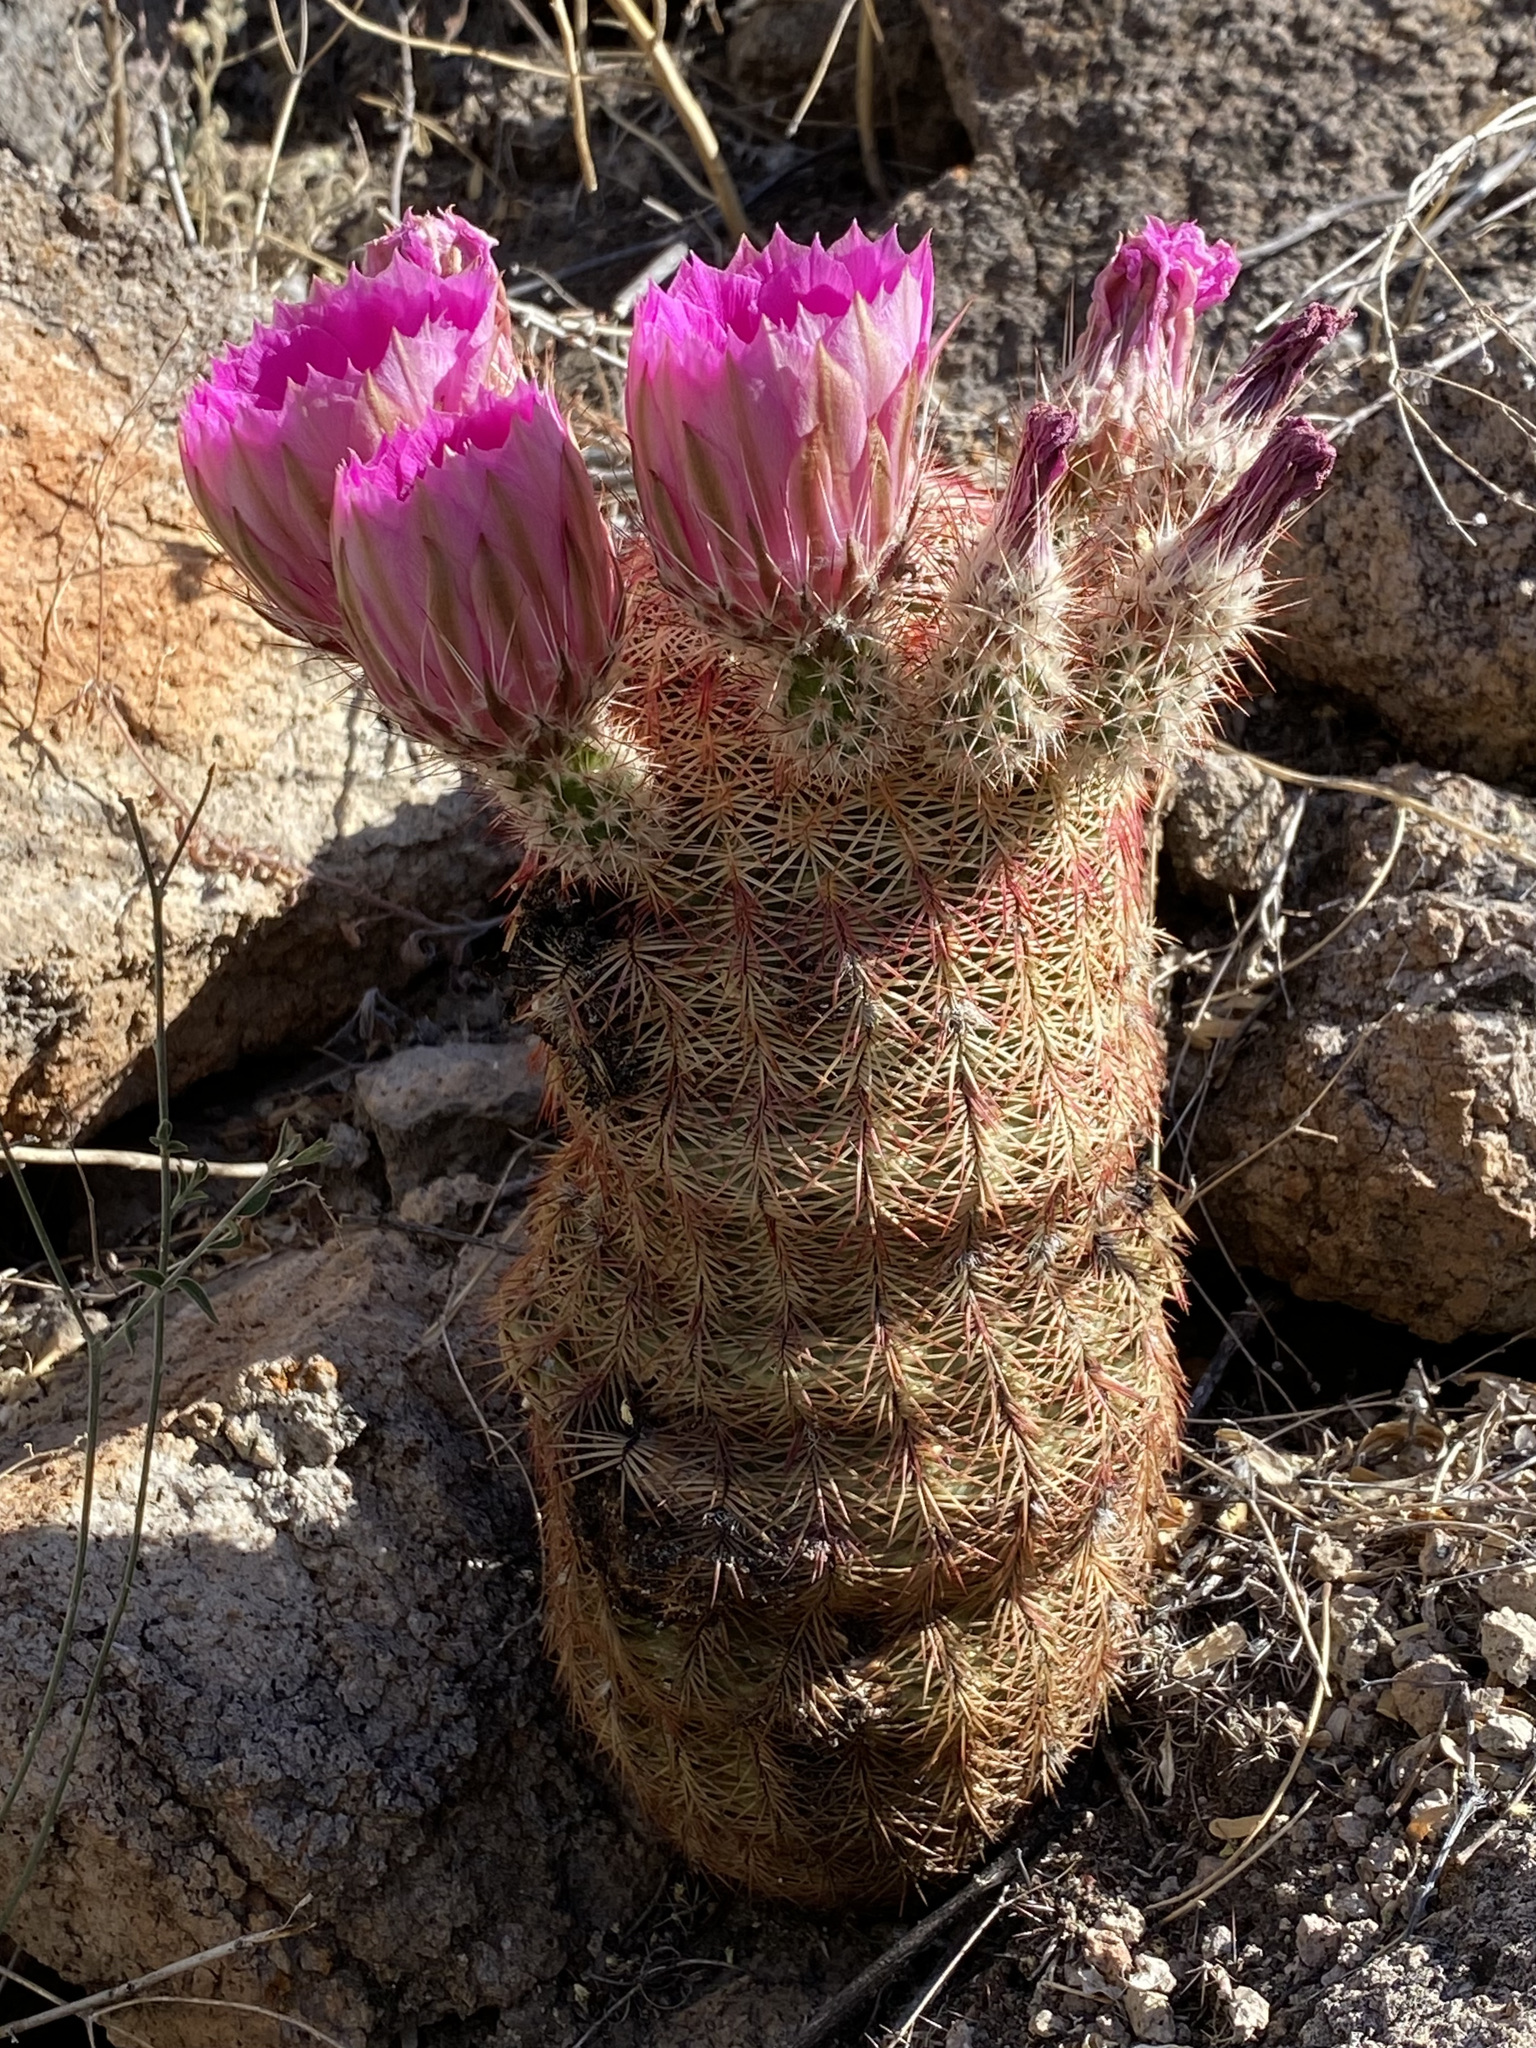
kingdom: Plantae
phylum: Tracheophyta
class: Magnoliopsida
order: Caryophyllales
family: Cactaceae
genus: Echinocereus
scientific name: Echinocereus rigidissimus
